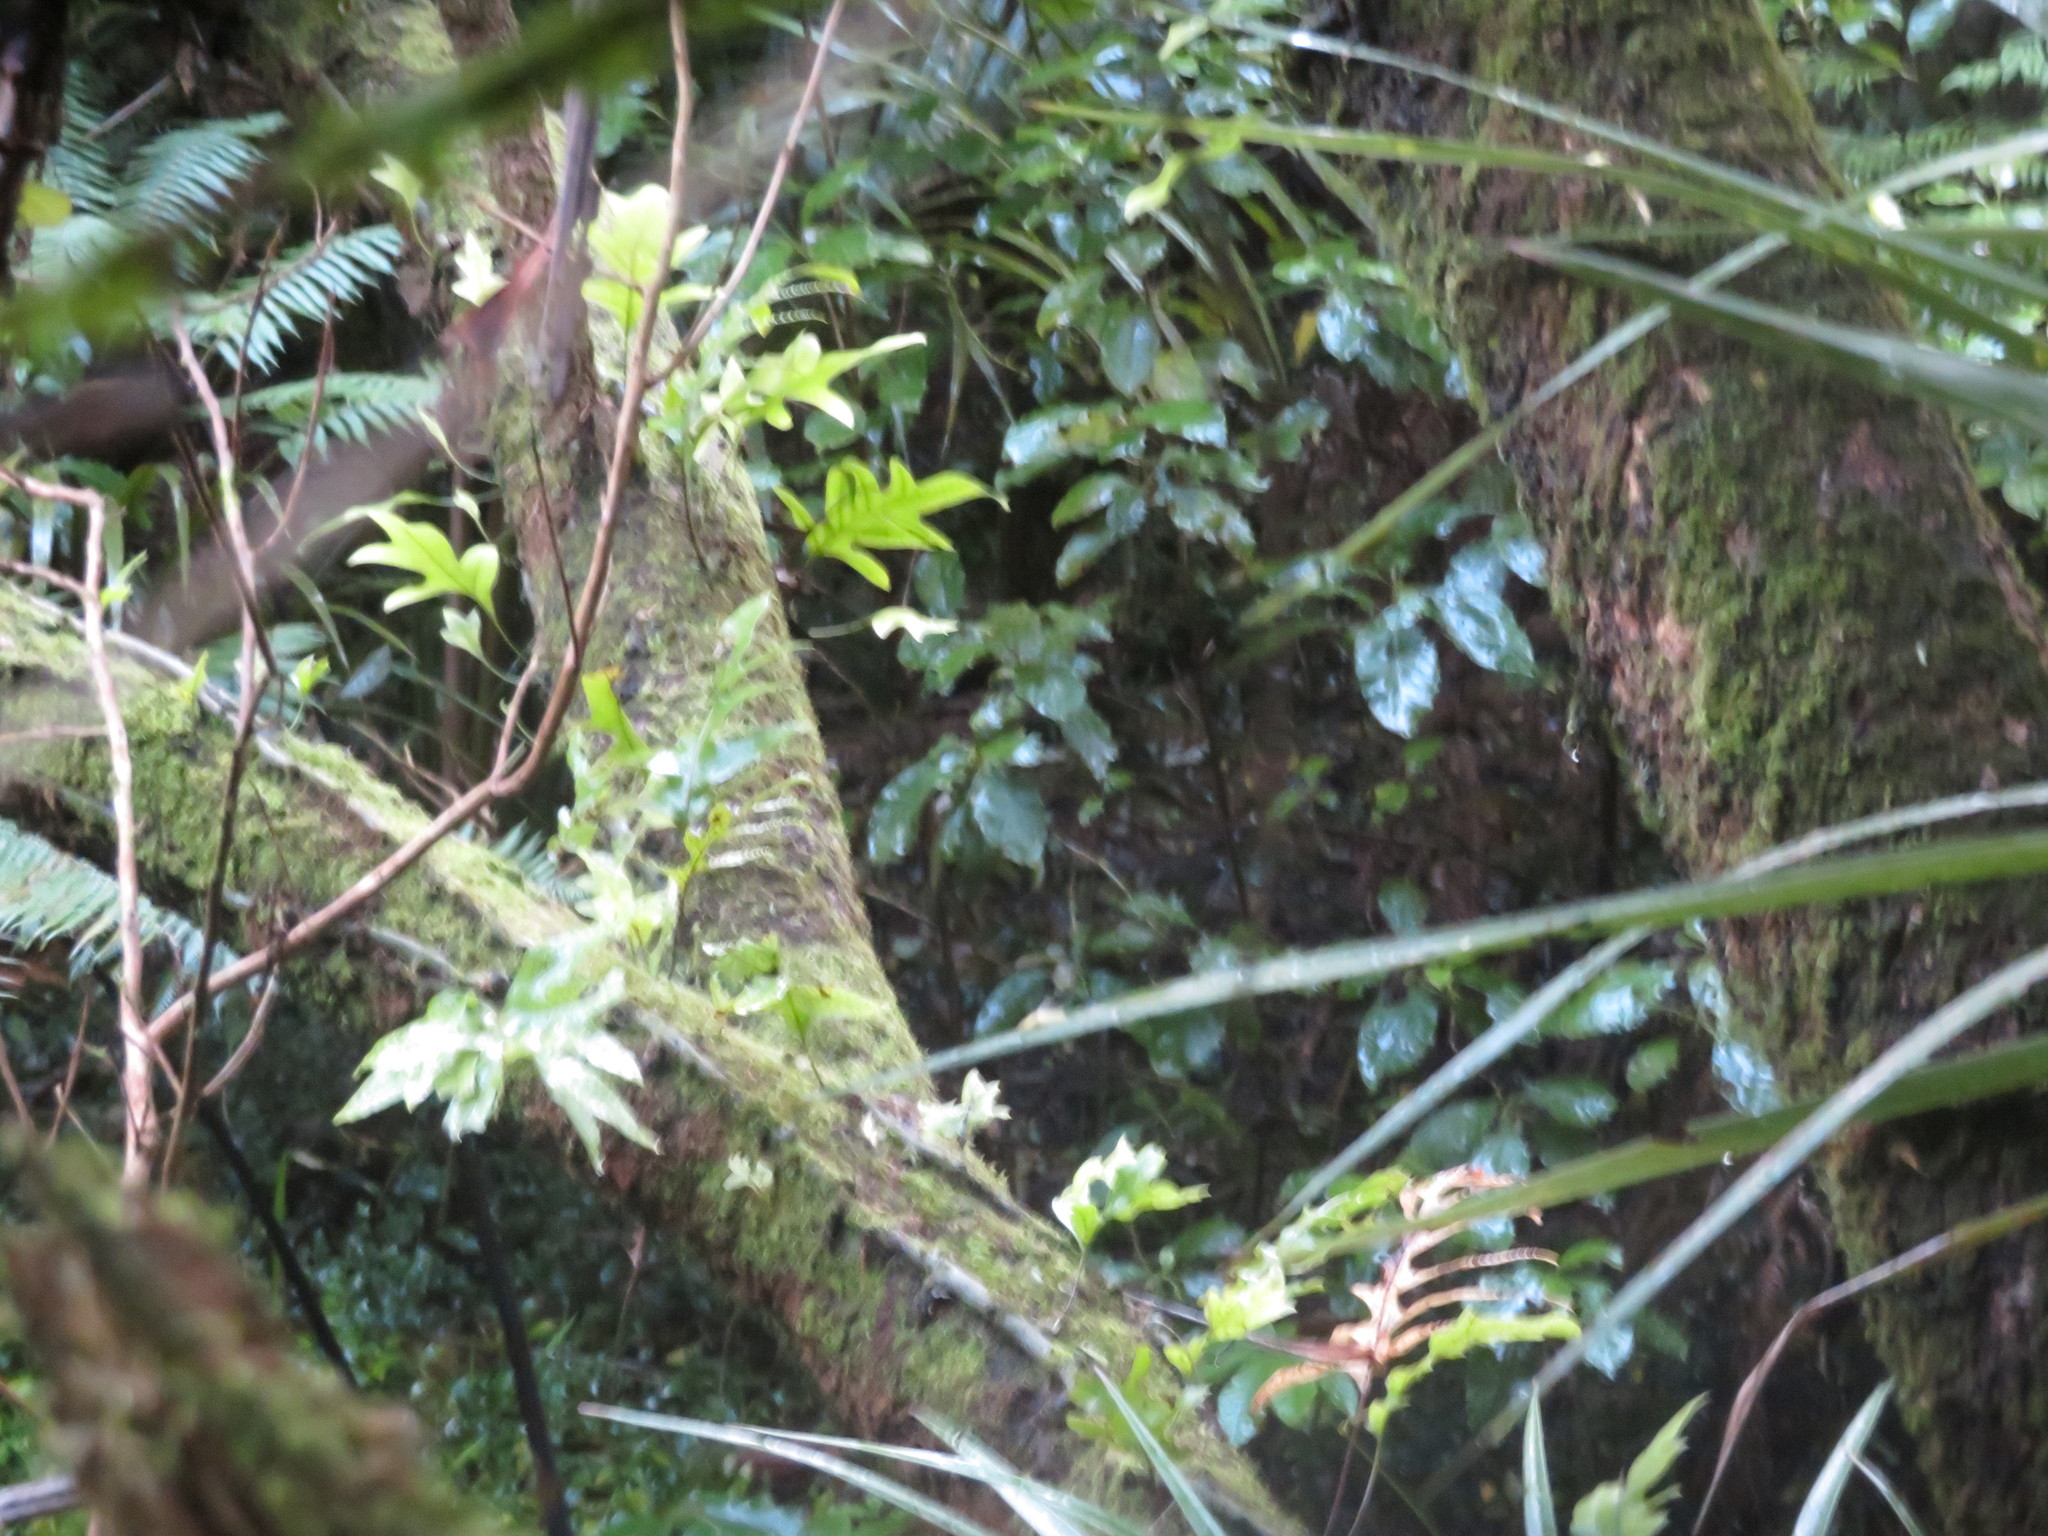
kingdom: Plantae
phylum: Tracheophyta
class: Polypodiopsida
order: Polypodiales
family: Polypodiaceae
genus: Lecanopteris
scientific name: Lecanopteris pustulata
